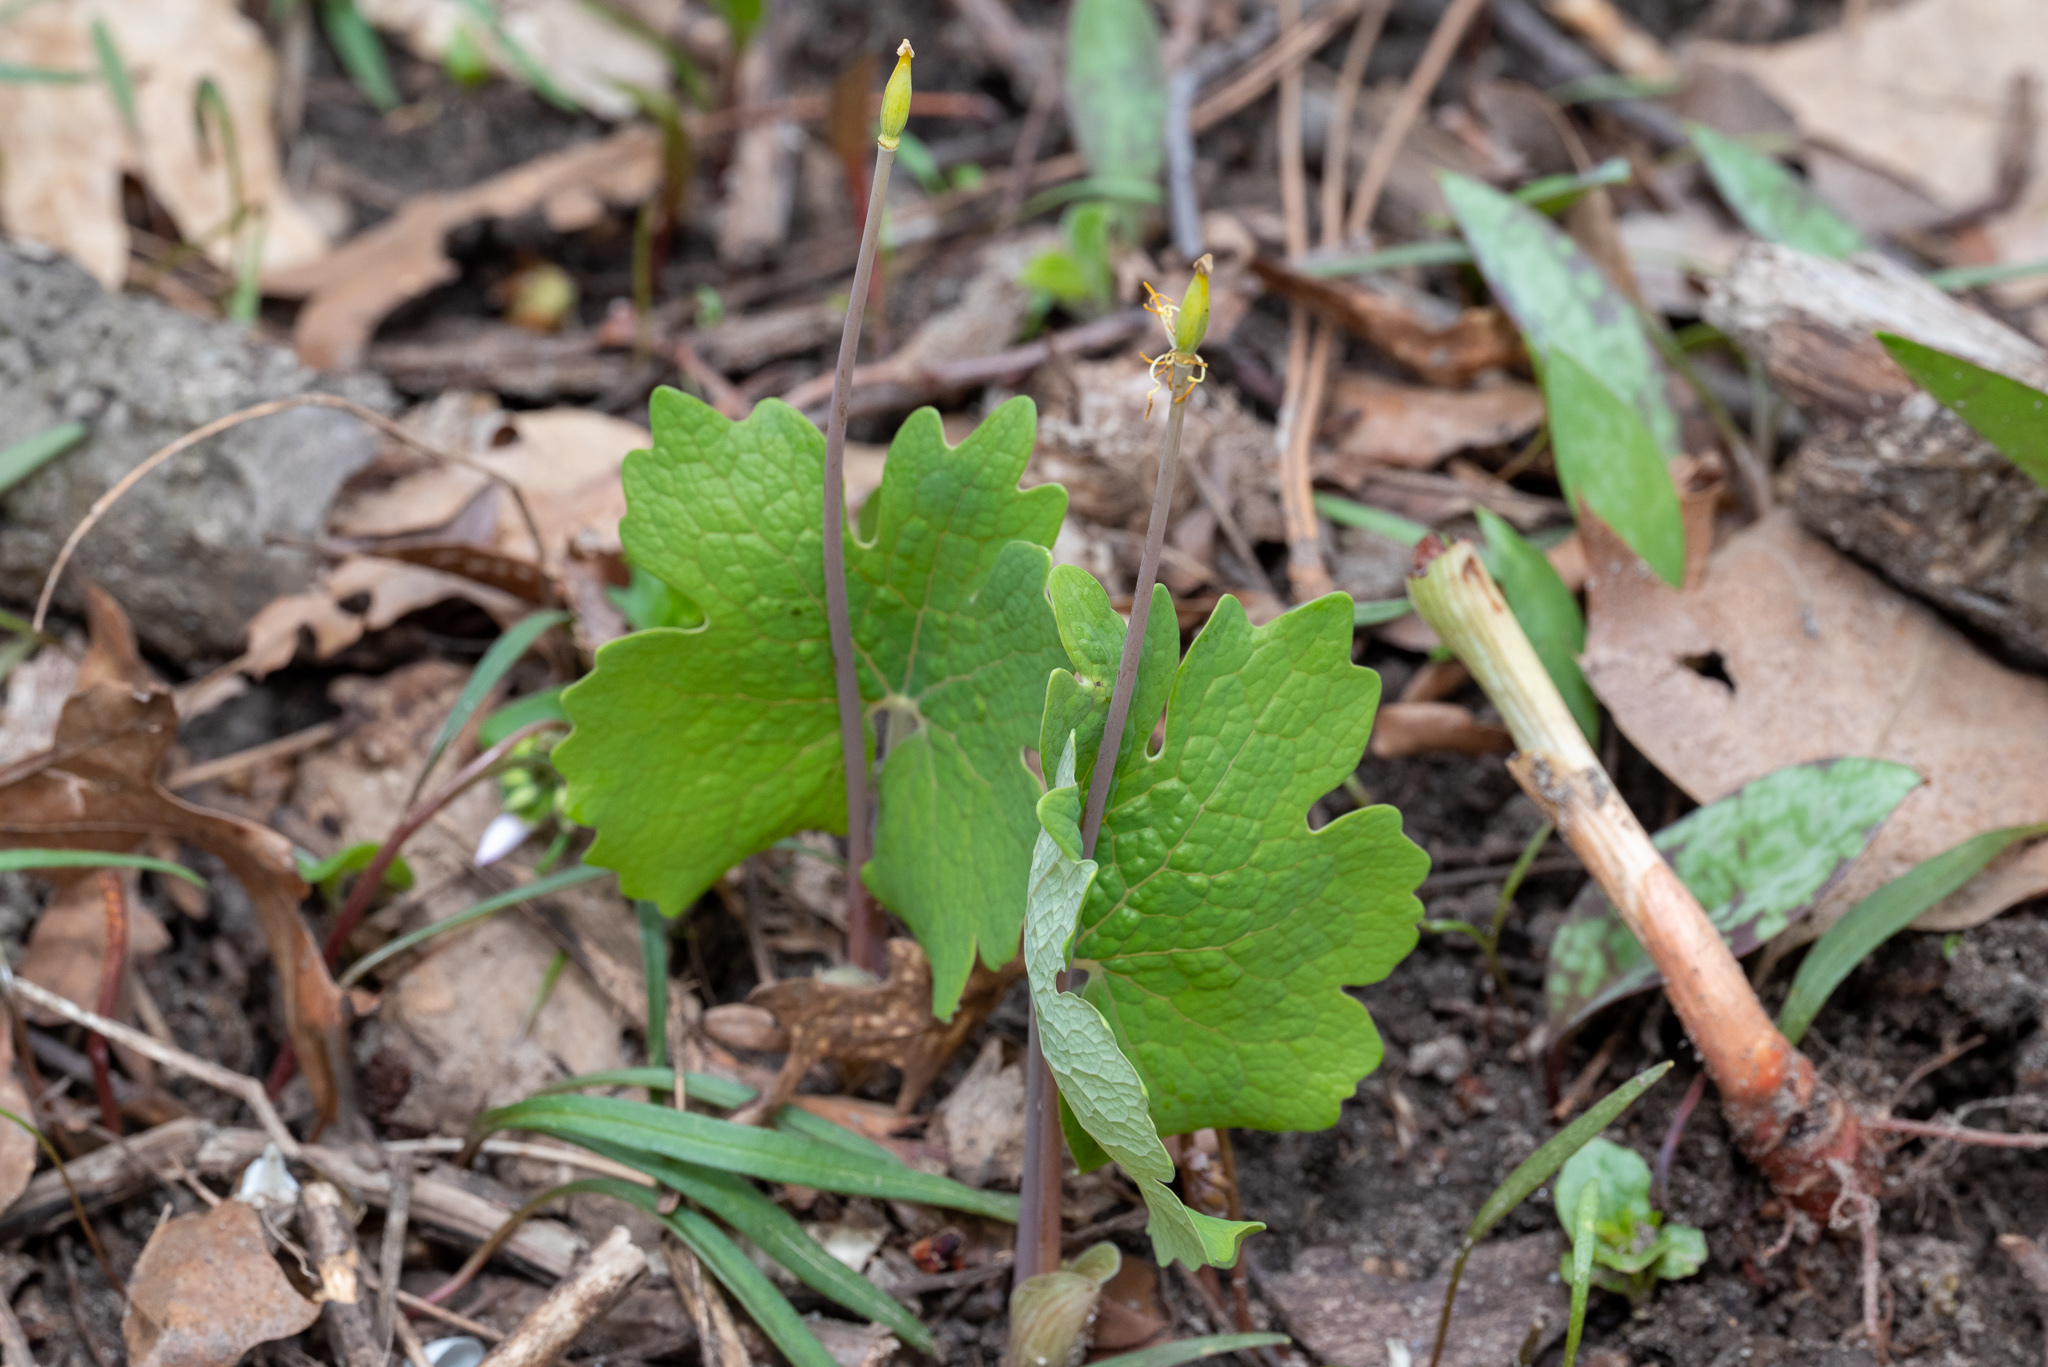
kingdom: Plantae
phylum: Tracheophyta
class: Magnoliopsida
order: Ranunculales
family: Papaveraceae
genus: Sanguinaria
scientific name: Sanguinaria canadensis
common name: Bloodroot
